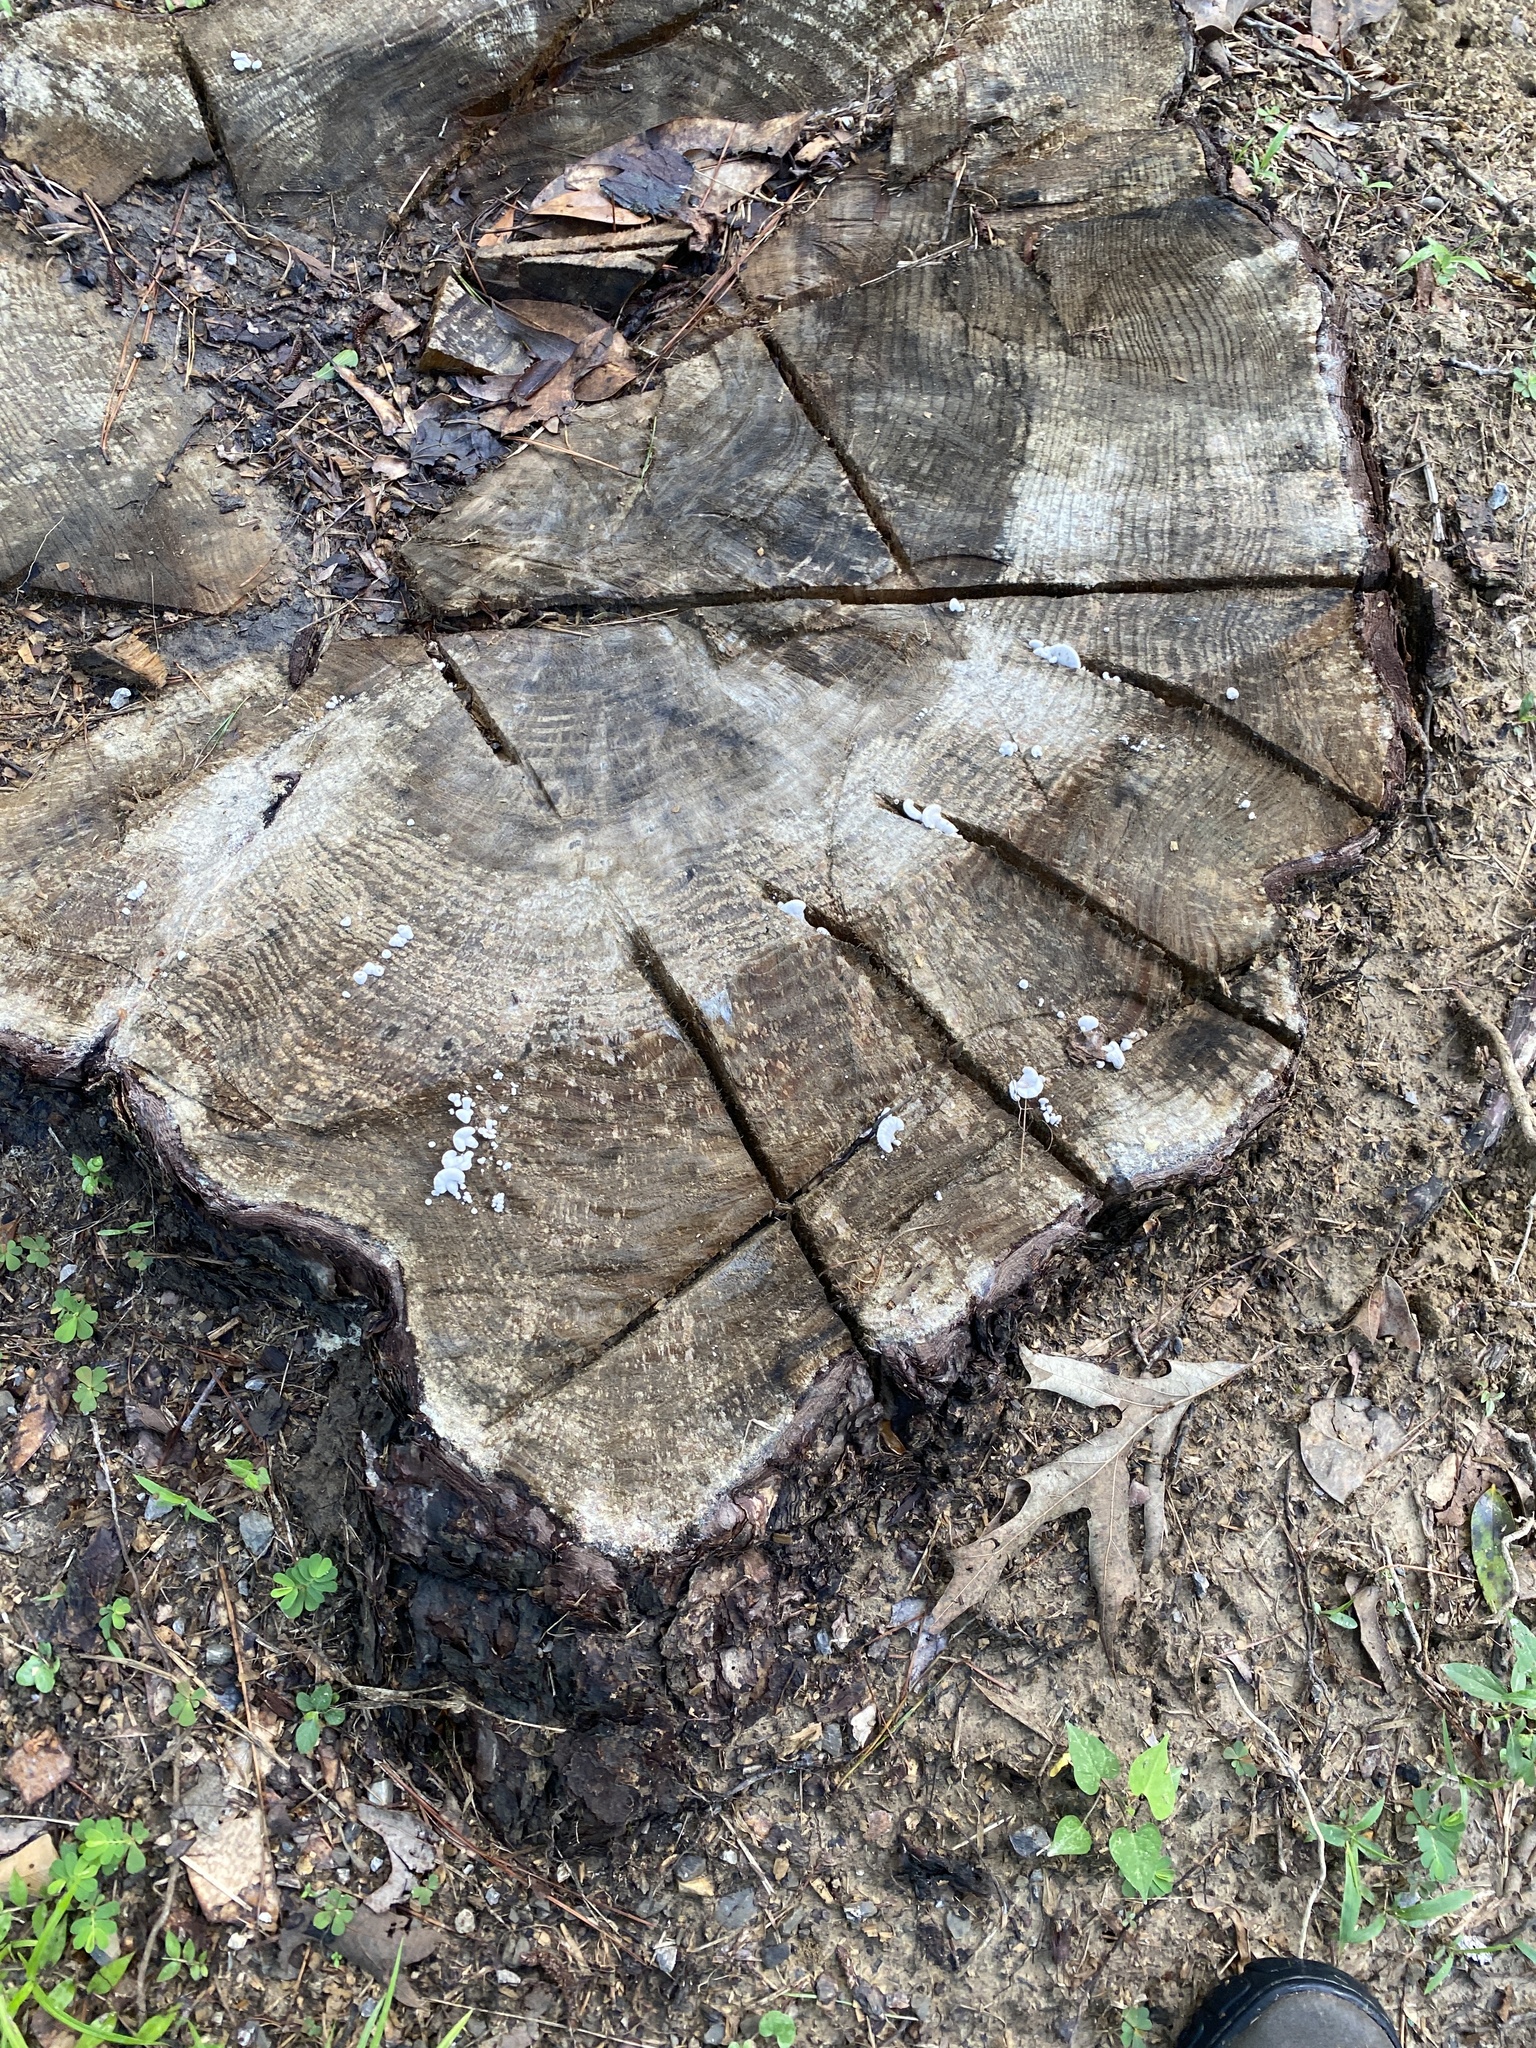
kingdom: Fungi
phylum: Basidiomycota
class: Agaricomycetes
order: Agaricales
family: Schizophyllaceae
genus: Schizophyllum
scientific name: Schizophyllum commune
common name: Common porecrust
